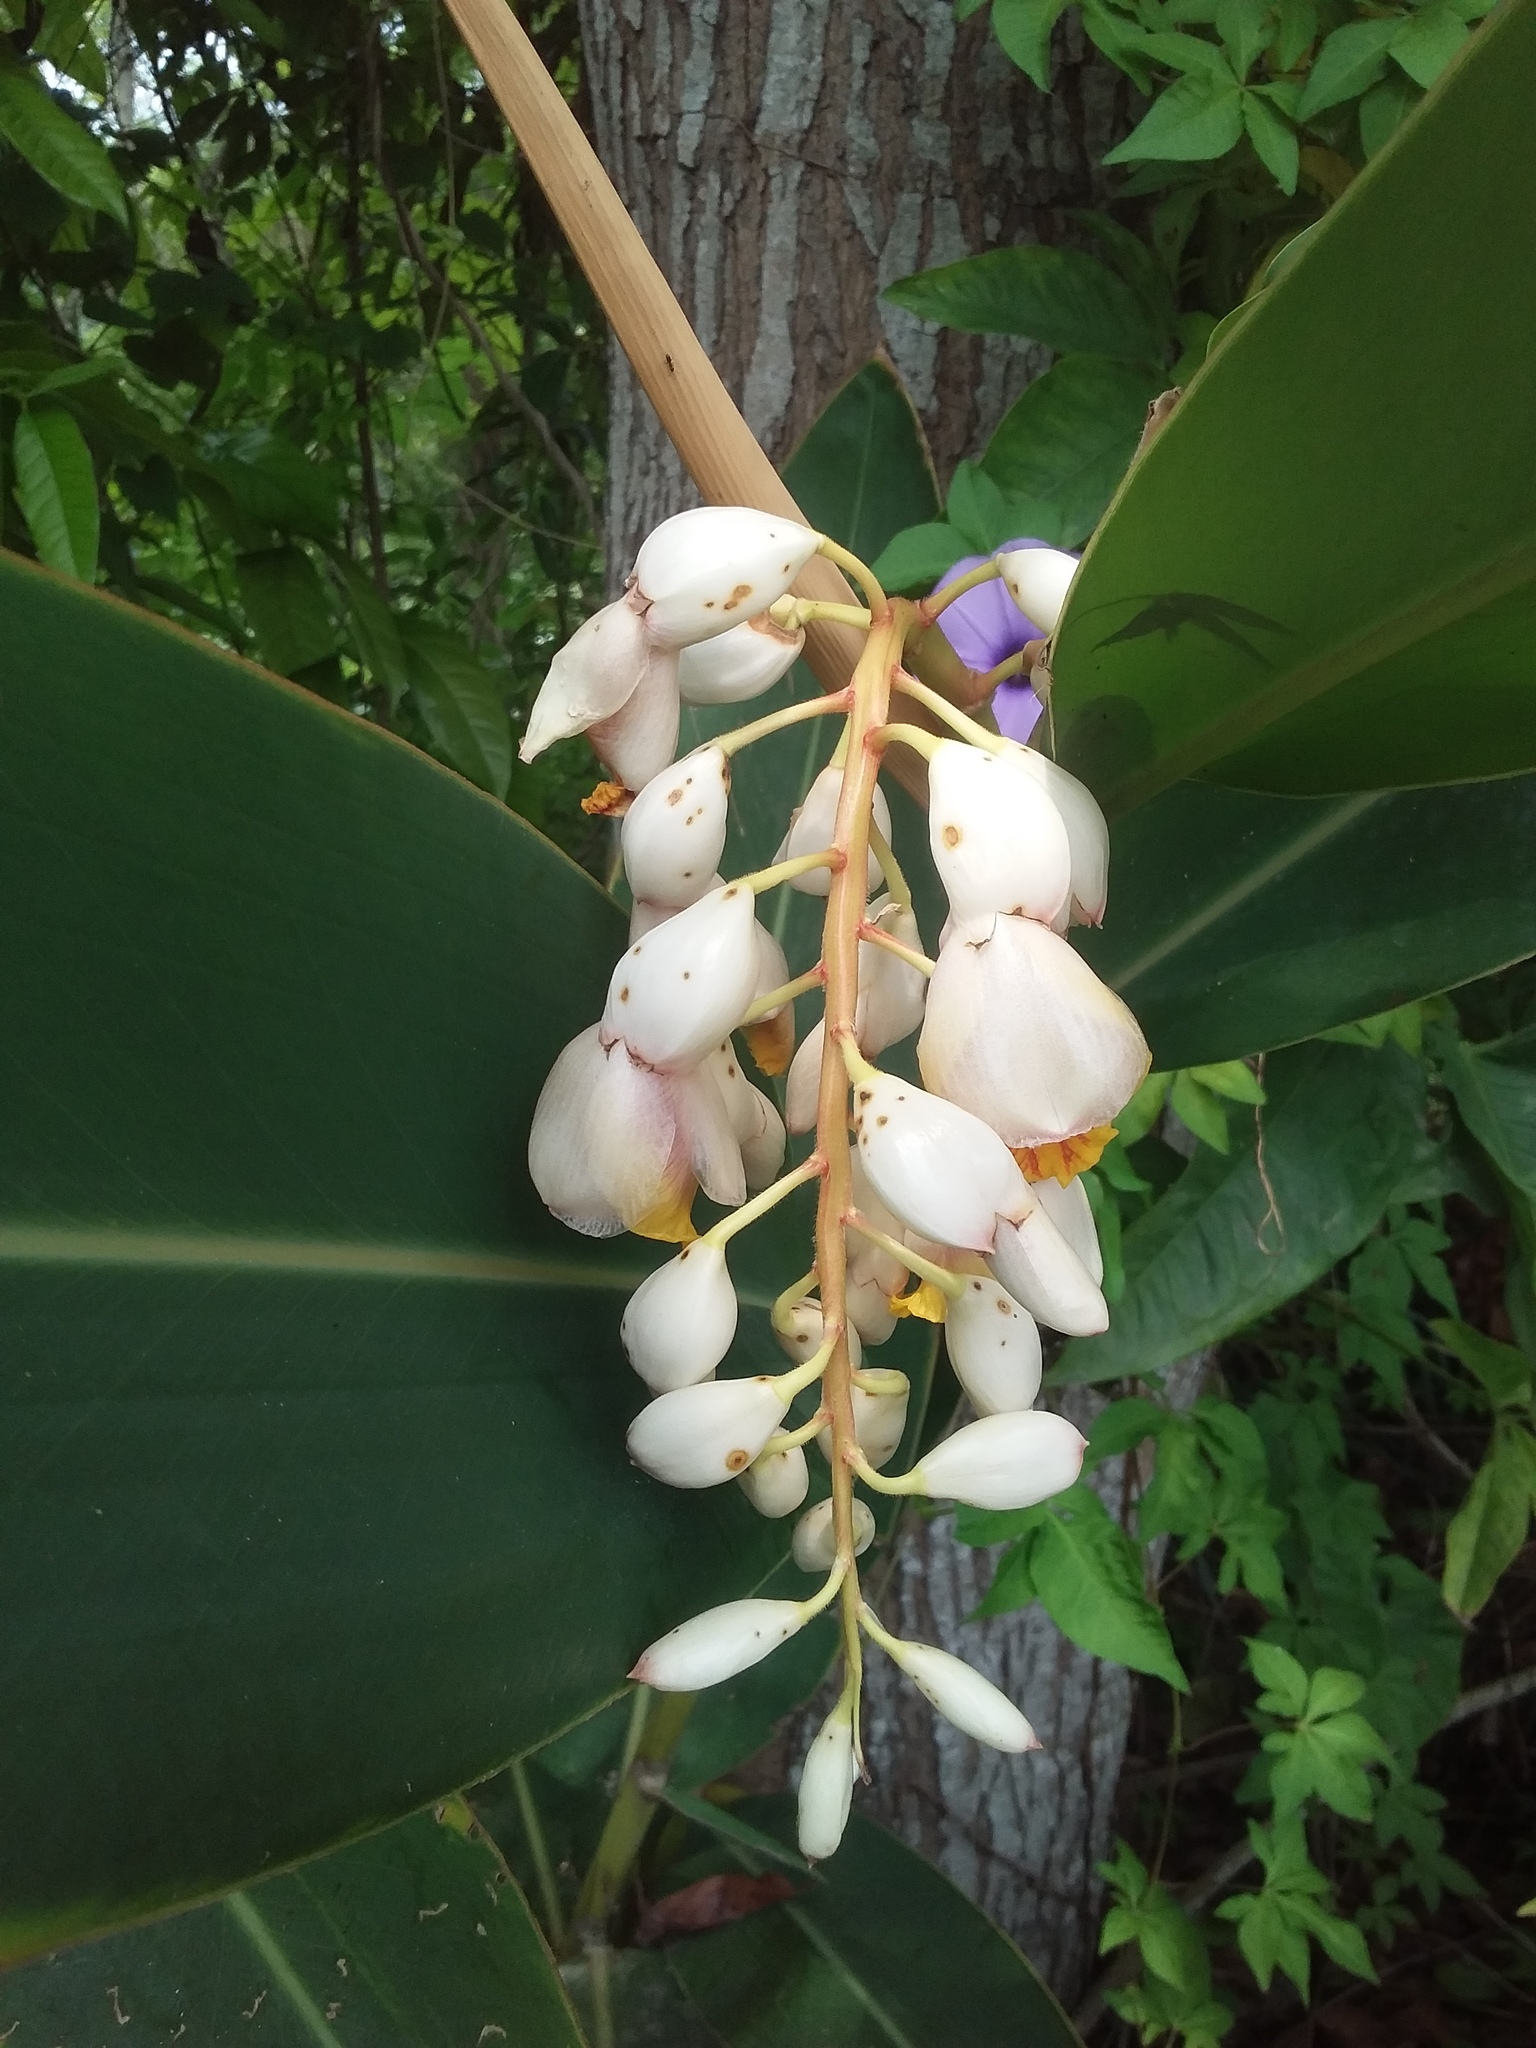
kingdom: Plantae
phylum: Tracheophyta
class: Liliopsida
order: Zingiberales
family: Zingiberaceae
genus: Alpinia
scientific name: Alpinia zerumbet
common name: Shellplant
